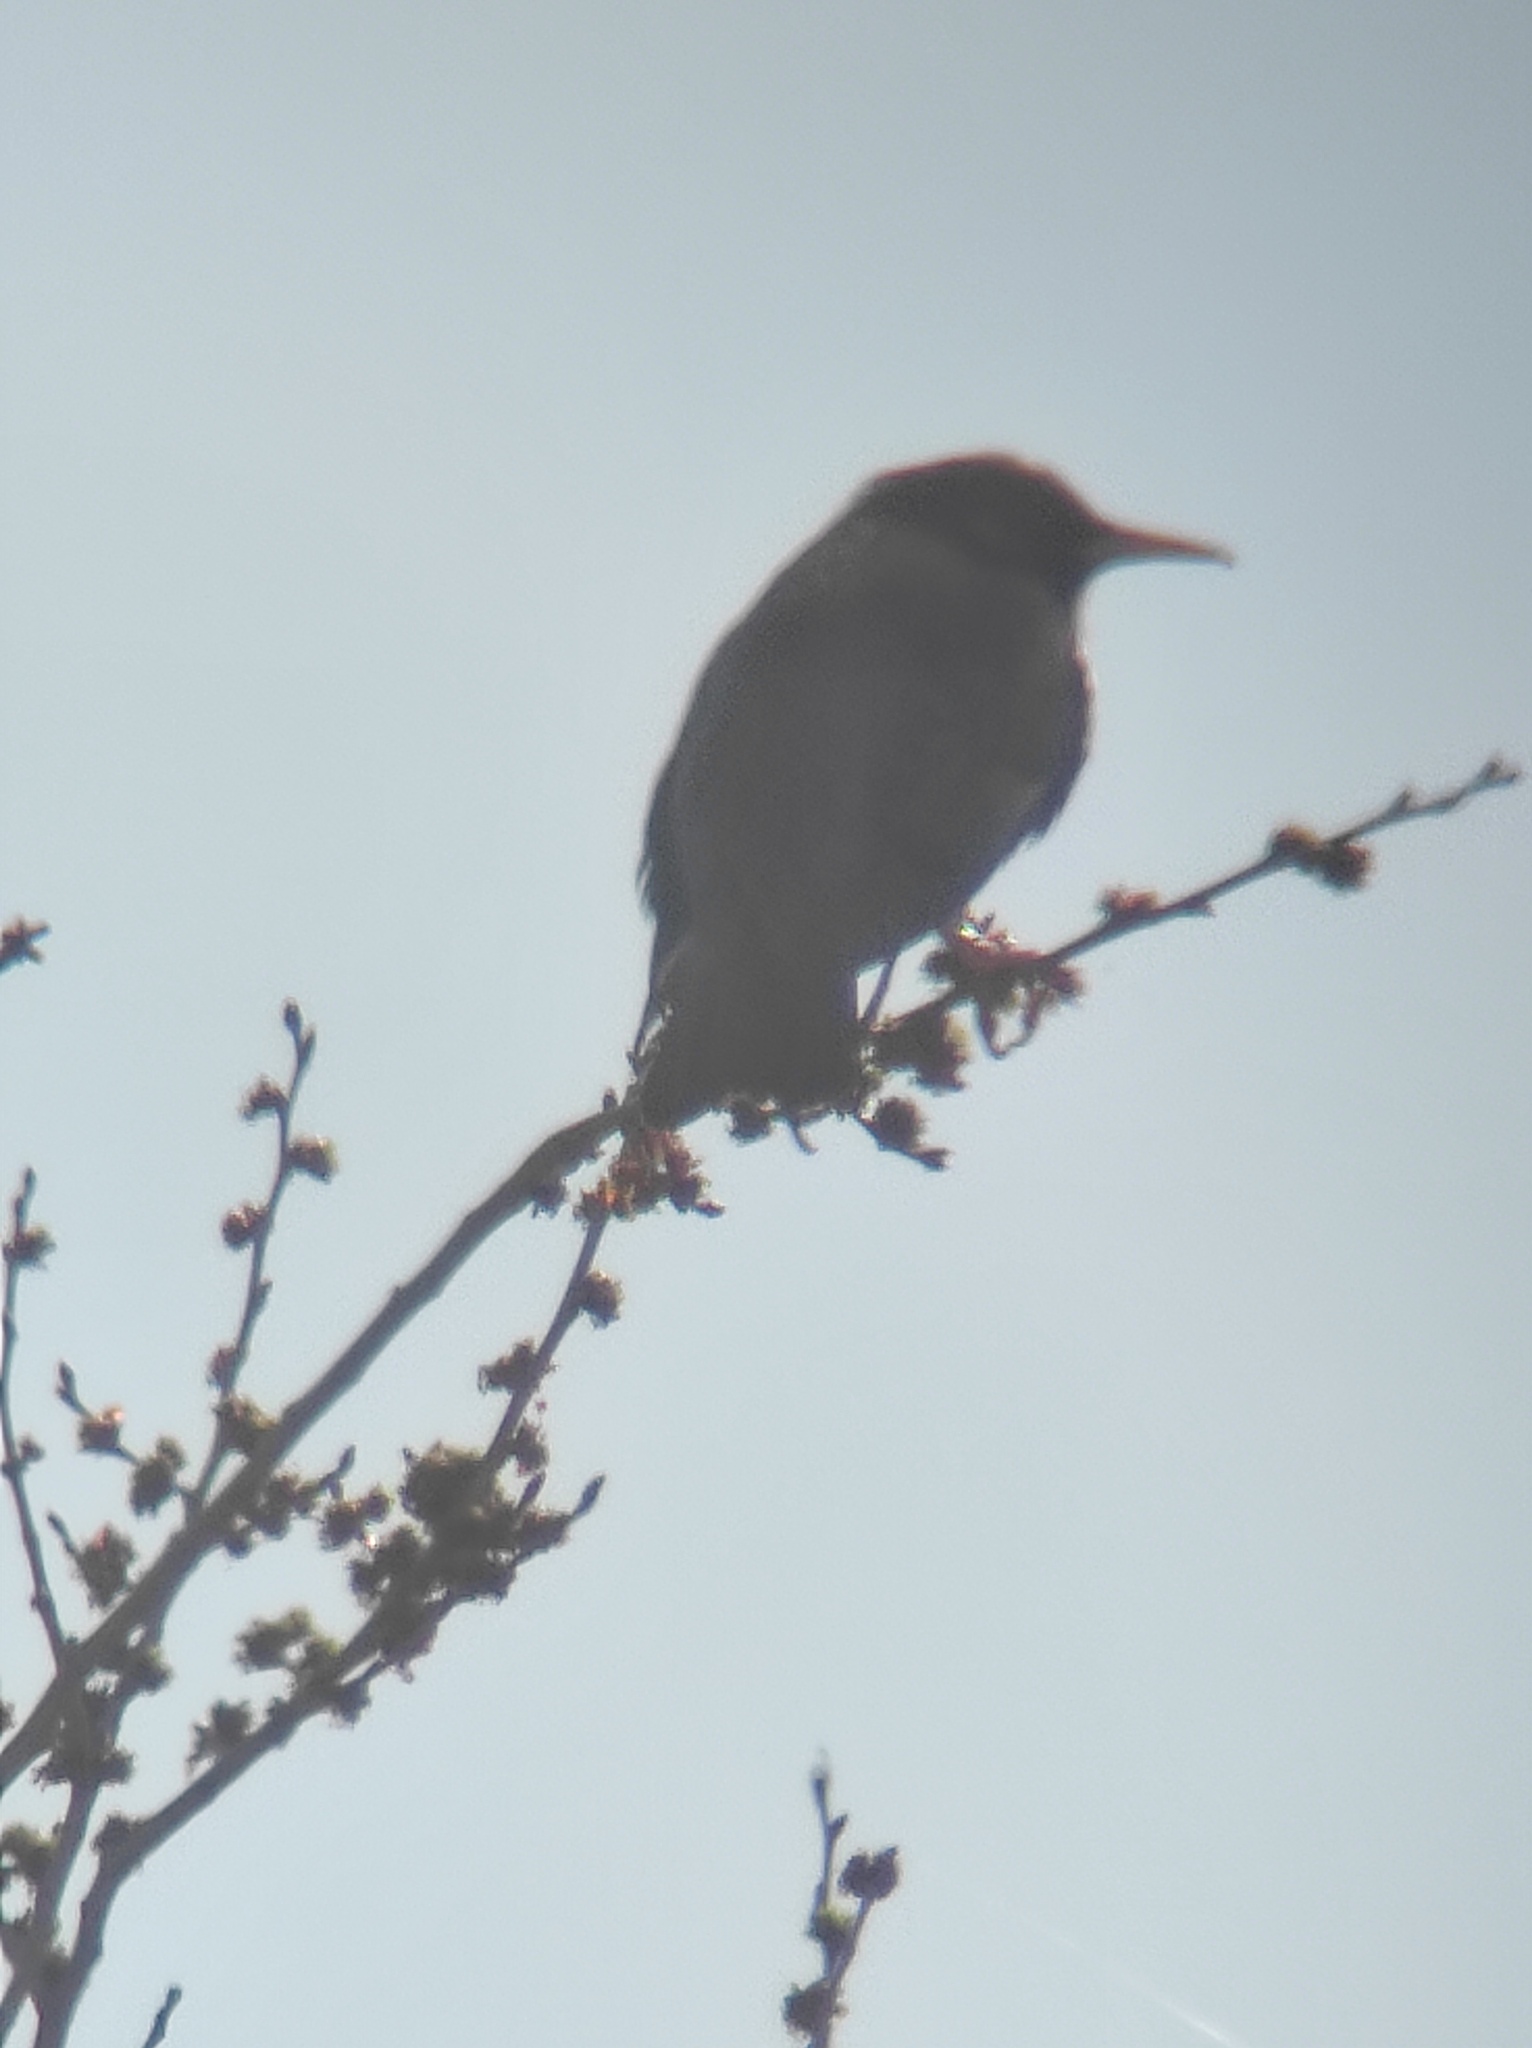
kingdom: Animalia
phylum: Chordata
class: Aves
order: Passeriformes
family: Sturnidae
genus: Sturnus
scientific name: Sturnus unicolor
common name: Spotless starling
